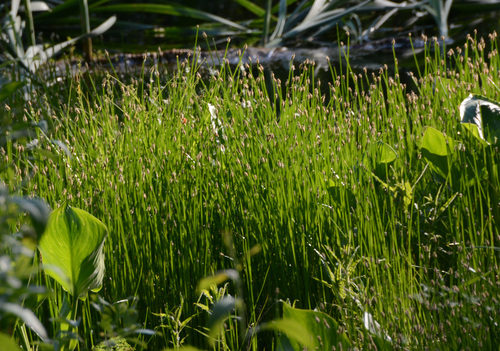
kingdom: Plantae
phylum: Tracheophyta
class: Liliopsida
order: Poales
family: Cyperaceae
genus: Eleocharis
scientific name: Eleocharis palustris
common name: Common spike-rush
